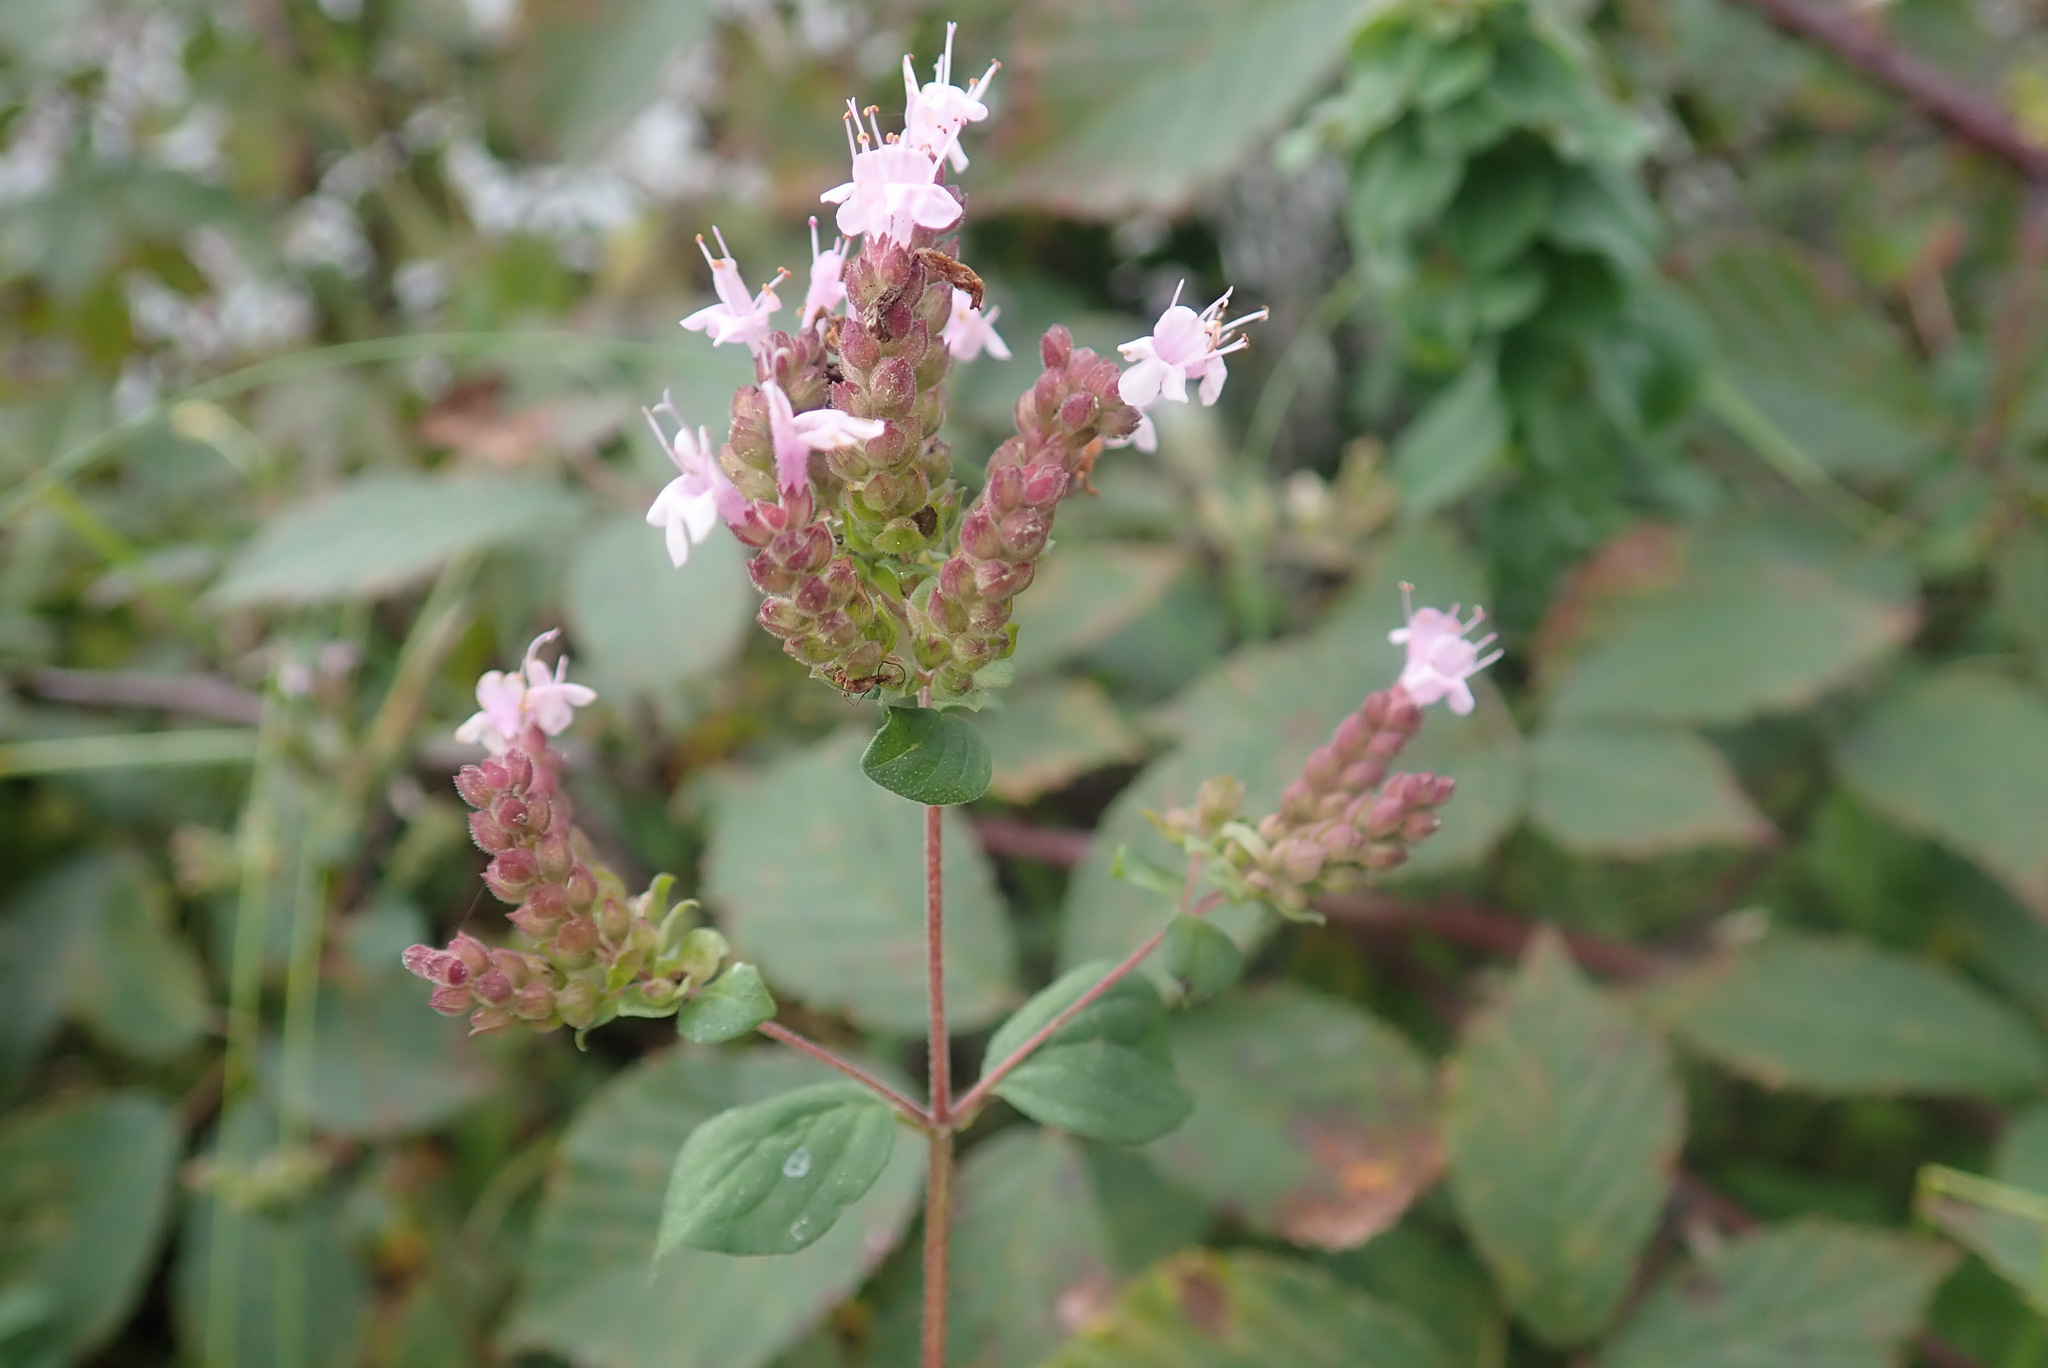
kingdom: Plantae
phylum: Tracheophyta
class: Magnoliopsida
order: Lamiales
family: Lamiaceae
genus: Origanum
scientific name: Origanum vulgare
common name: Wild marjoram
